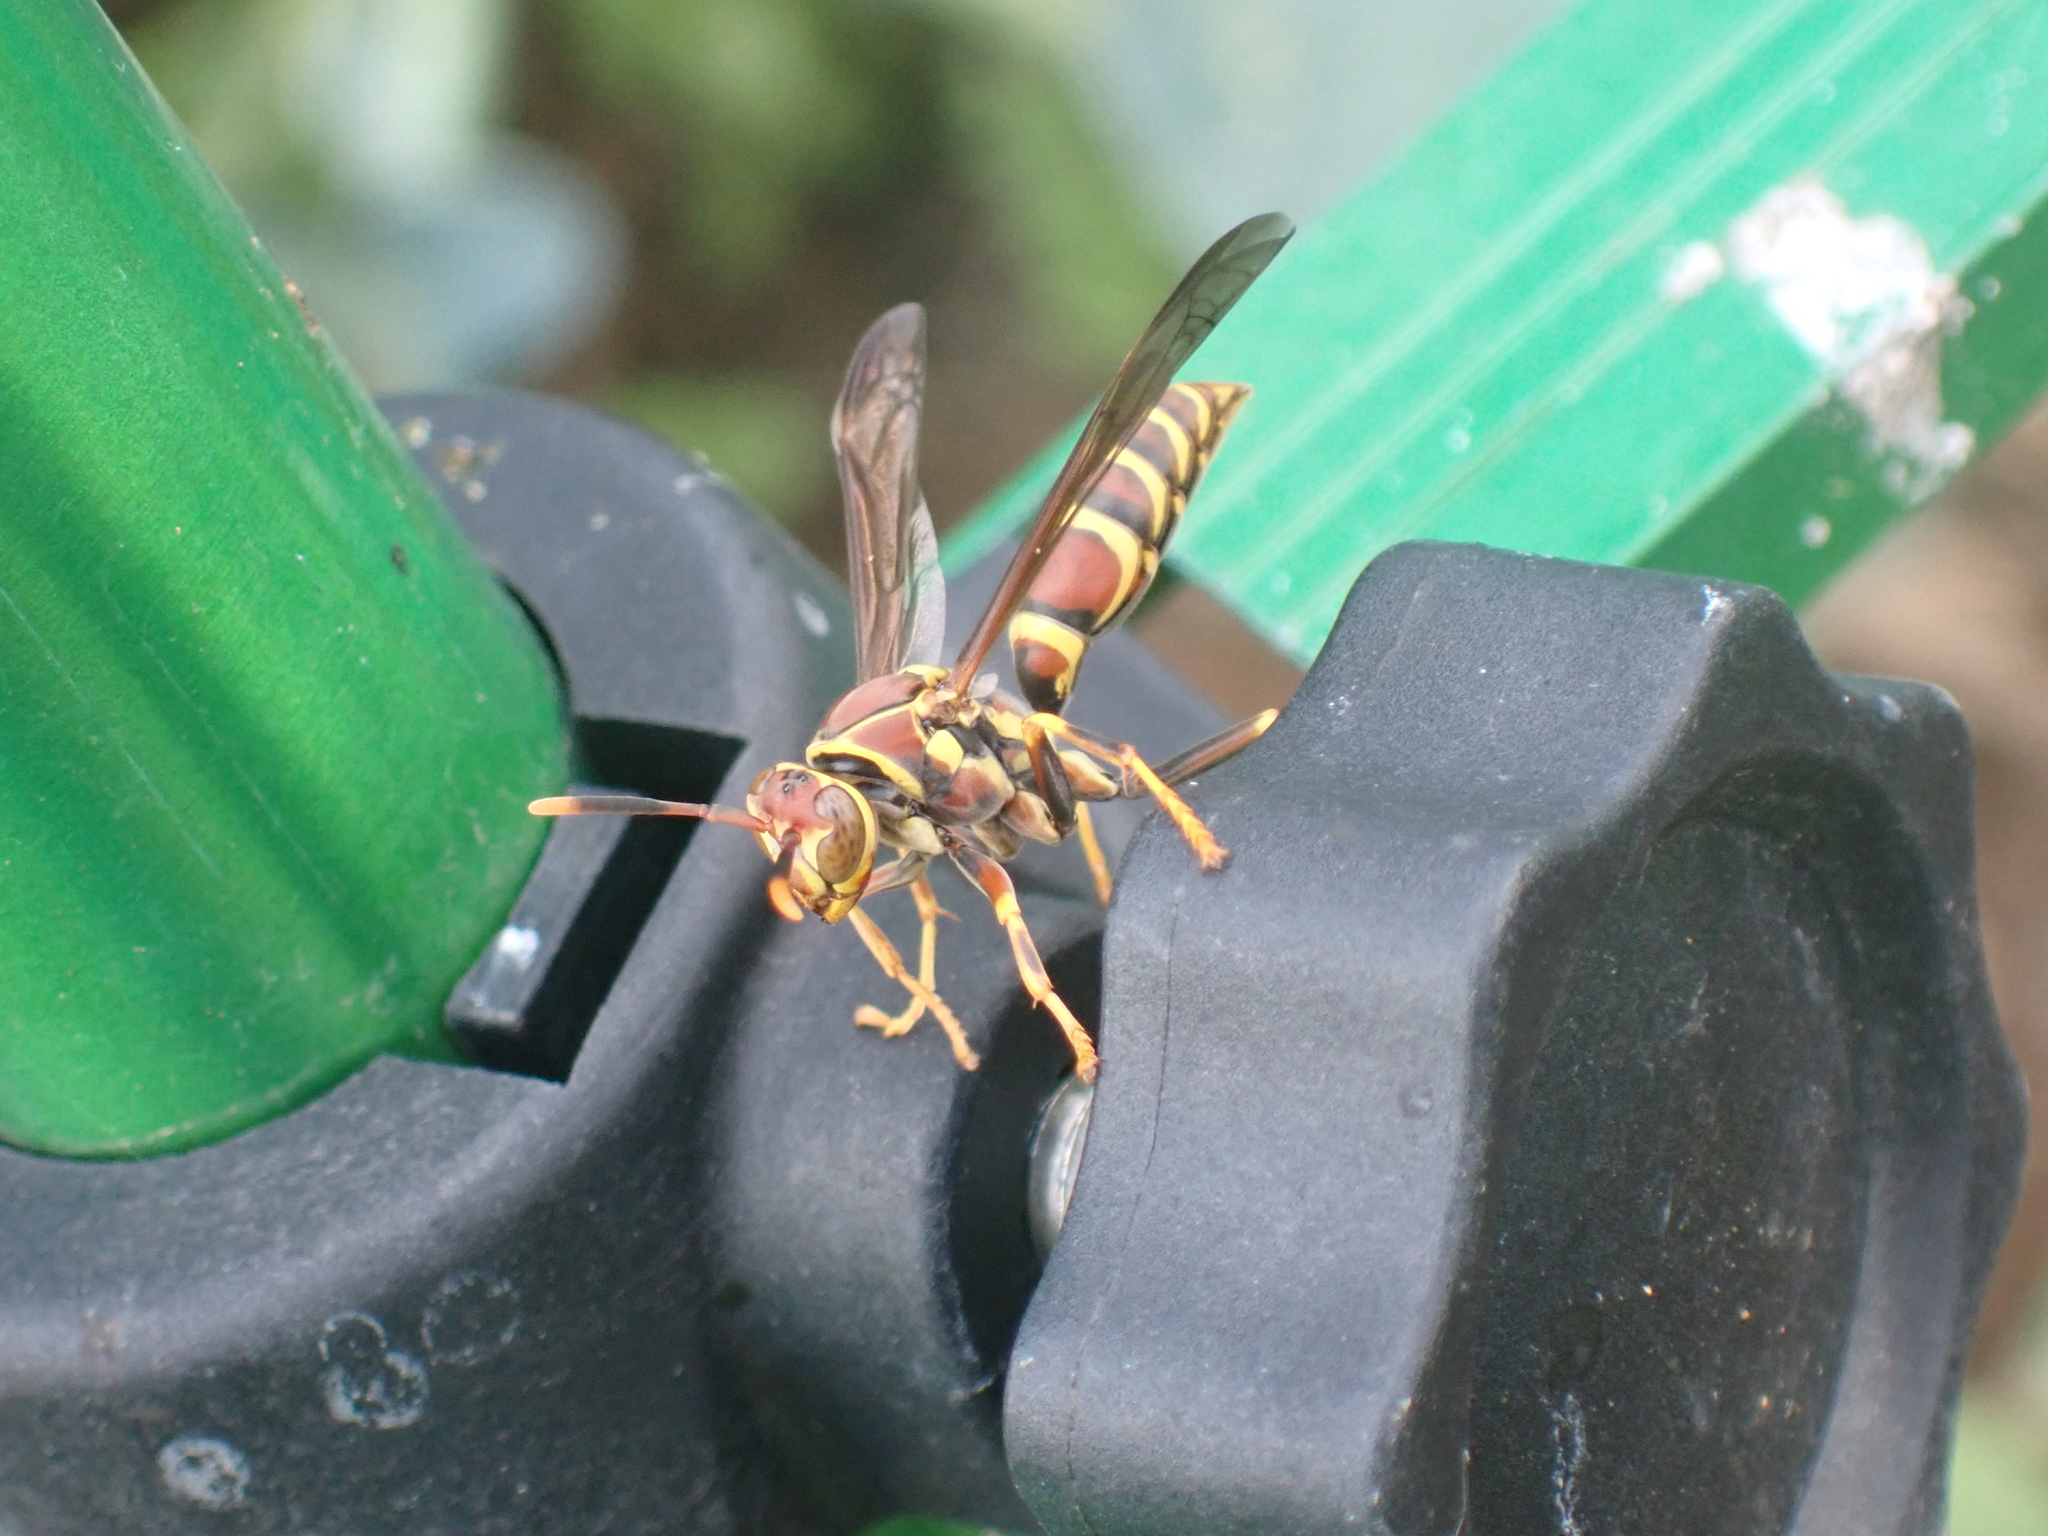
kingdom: Animalia
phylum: Arthropoda
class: Insecta
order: Hymenoptera
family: Eumenidae
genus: Polistes
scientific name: Polistes exclamans
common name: Paper wasp
